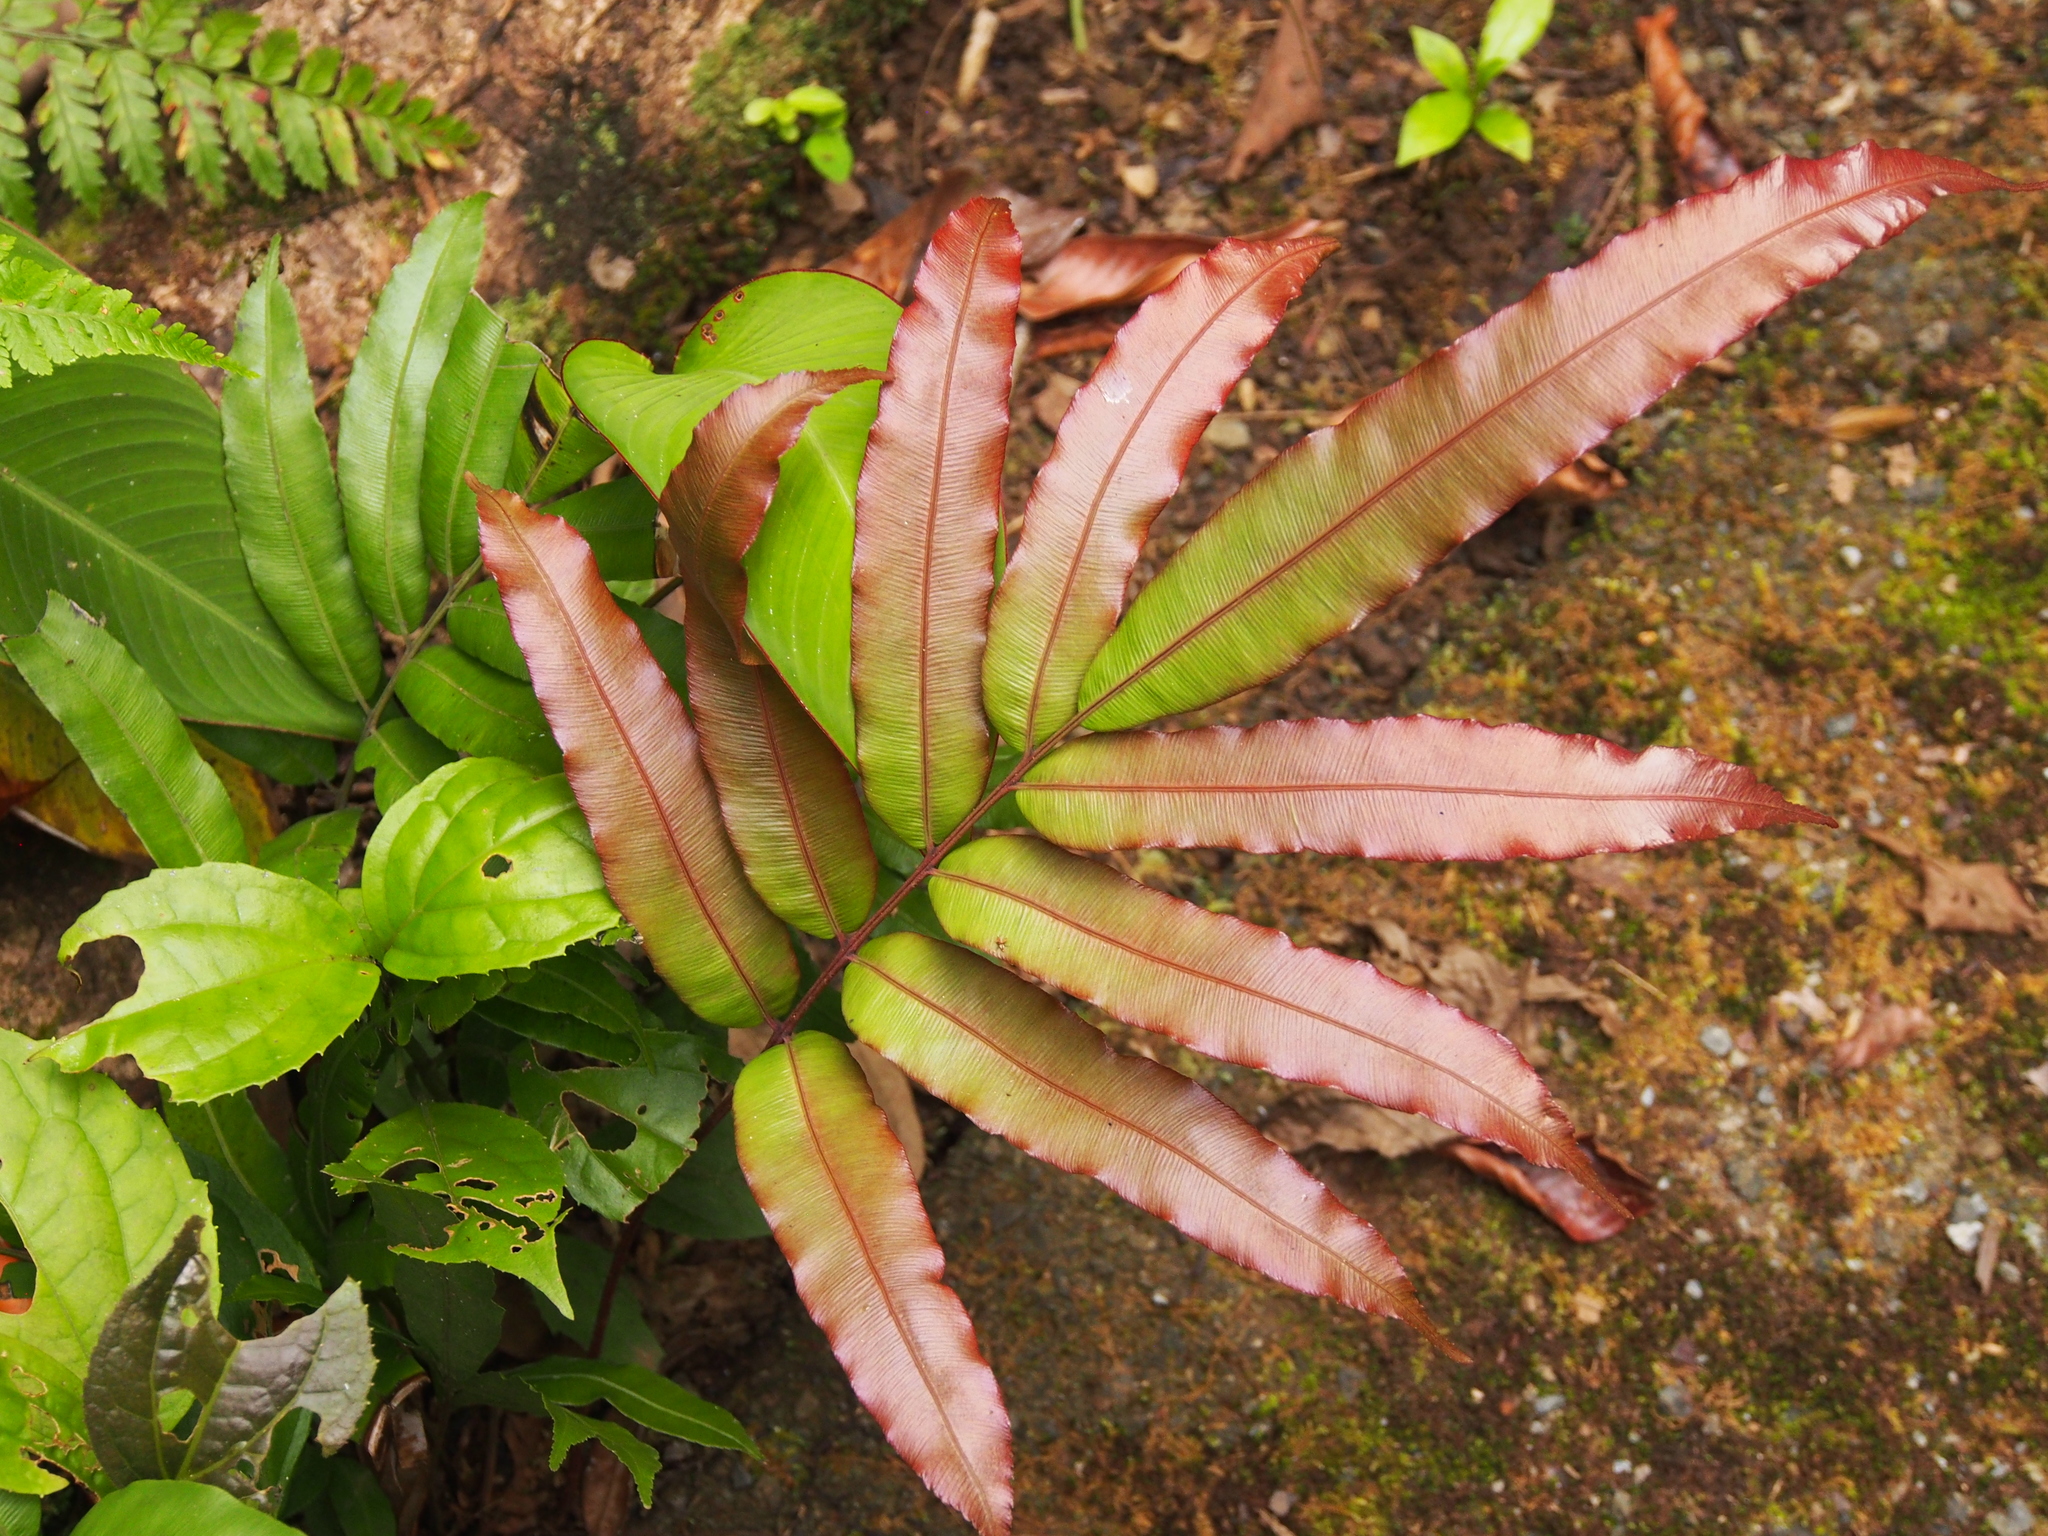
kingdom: Plantae
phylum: Tracheophyta
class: Polypodiopsida
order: Polypodiales
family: Blechnaceae
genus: Salpichlaena
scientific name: Salpichlaena papyrus
